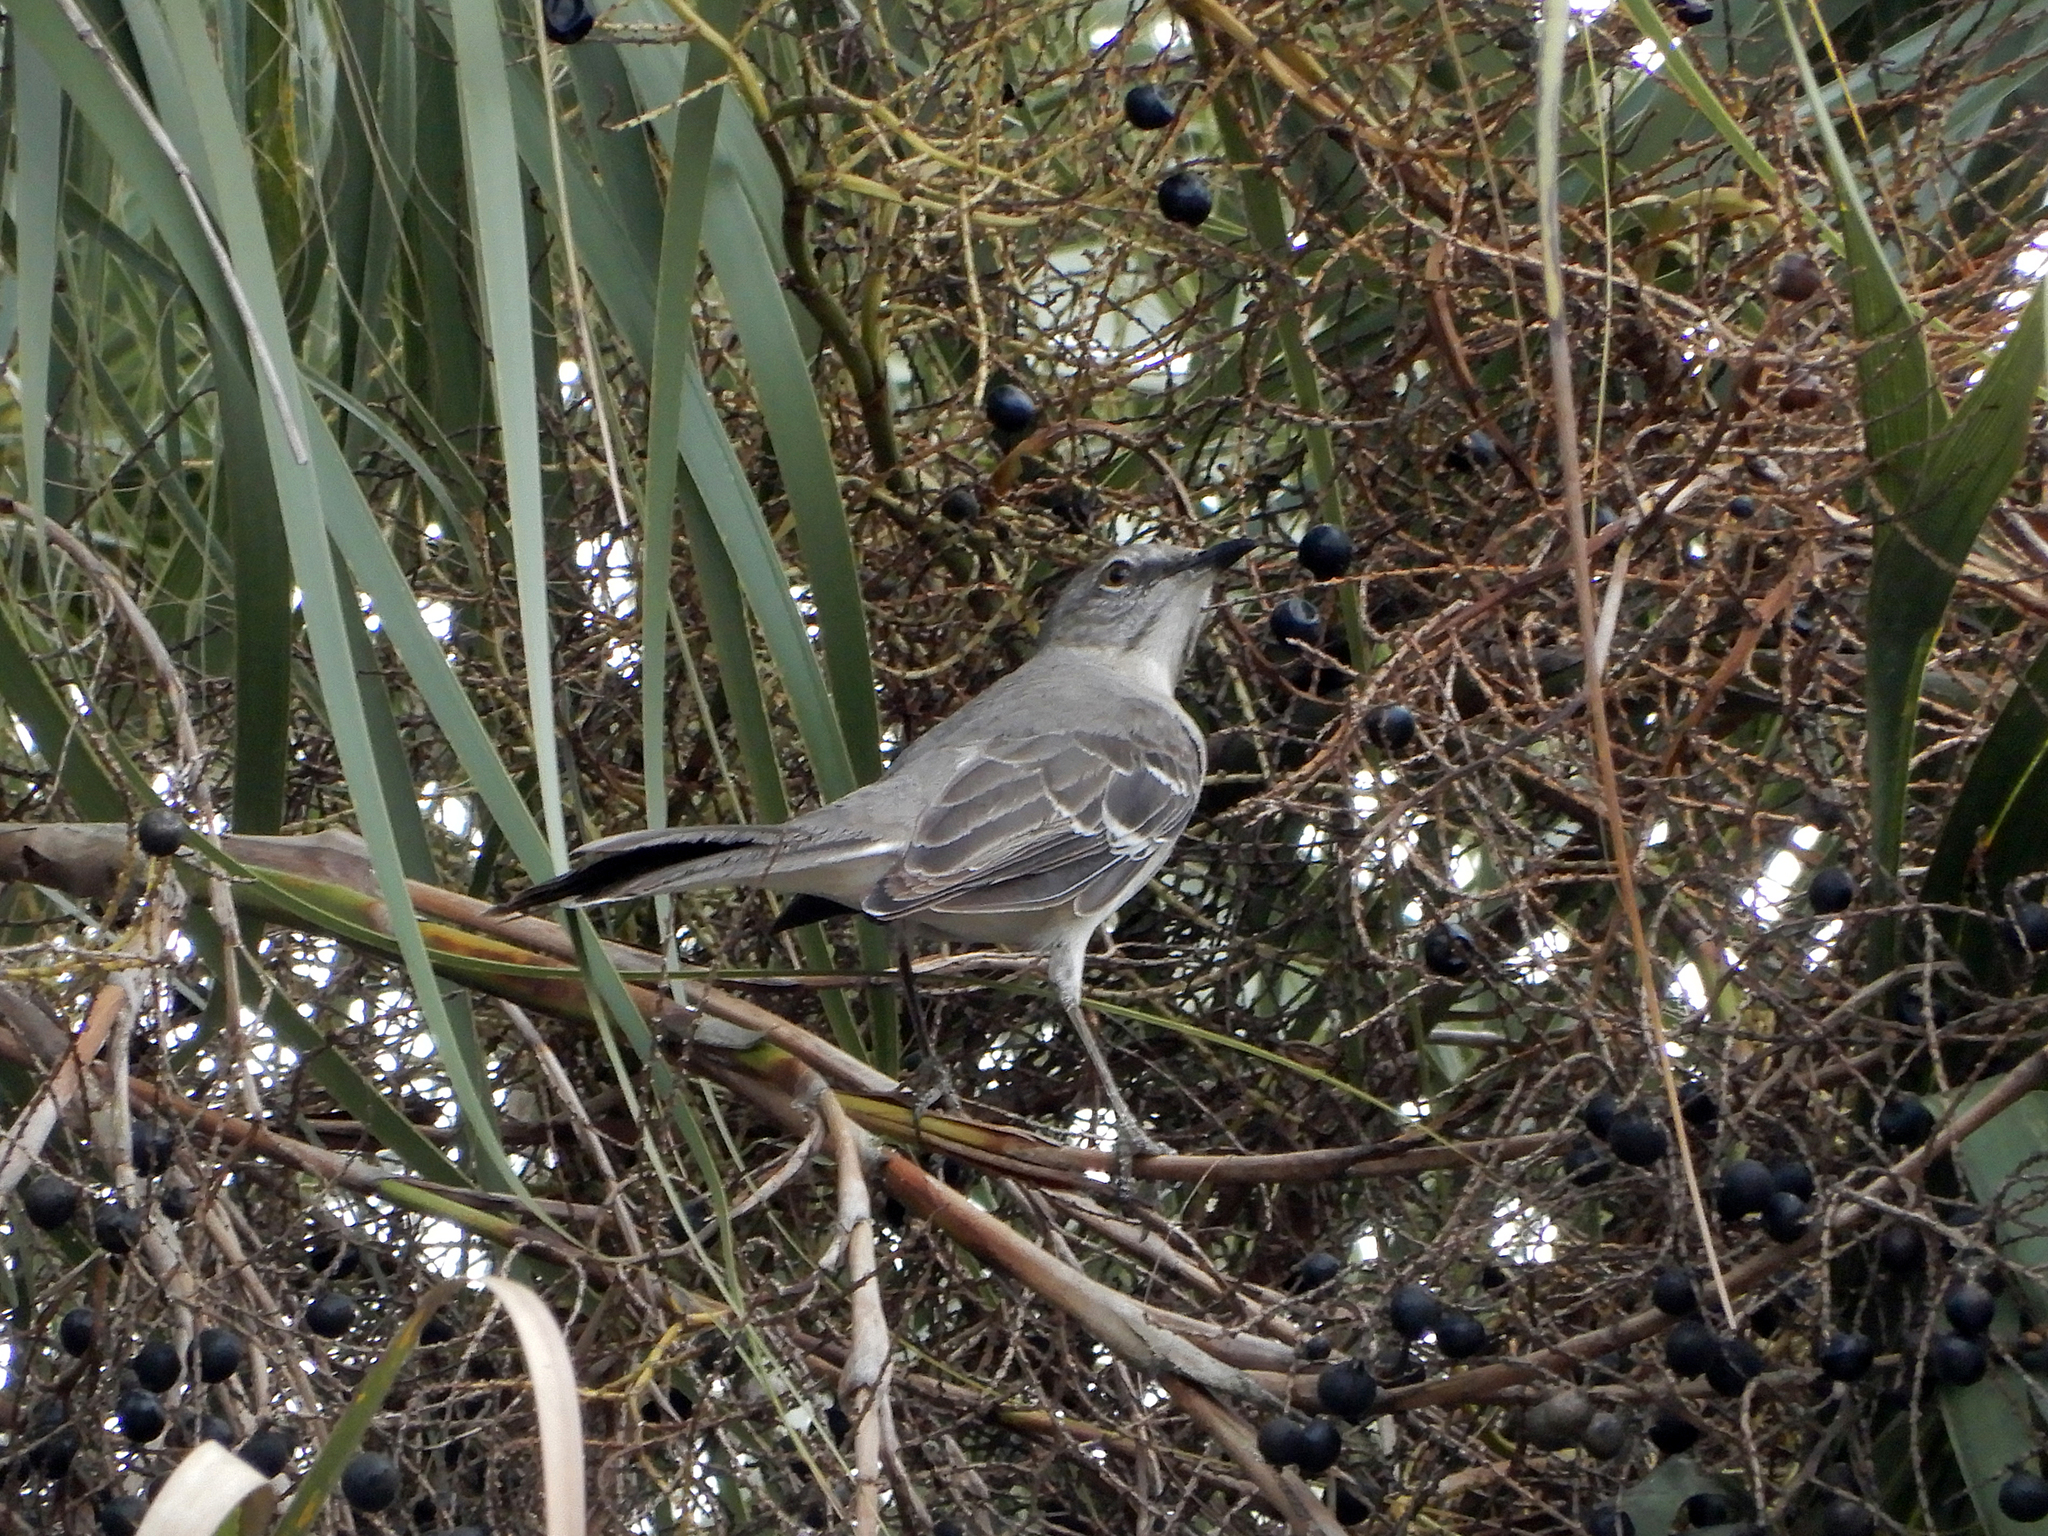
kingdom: Animalia
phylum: Chordata
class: Aves
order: Passeriformes
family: Mimidae
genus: Mimus
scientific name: Mimus polyglottos
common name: Northern mockingbird
